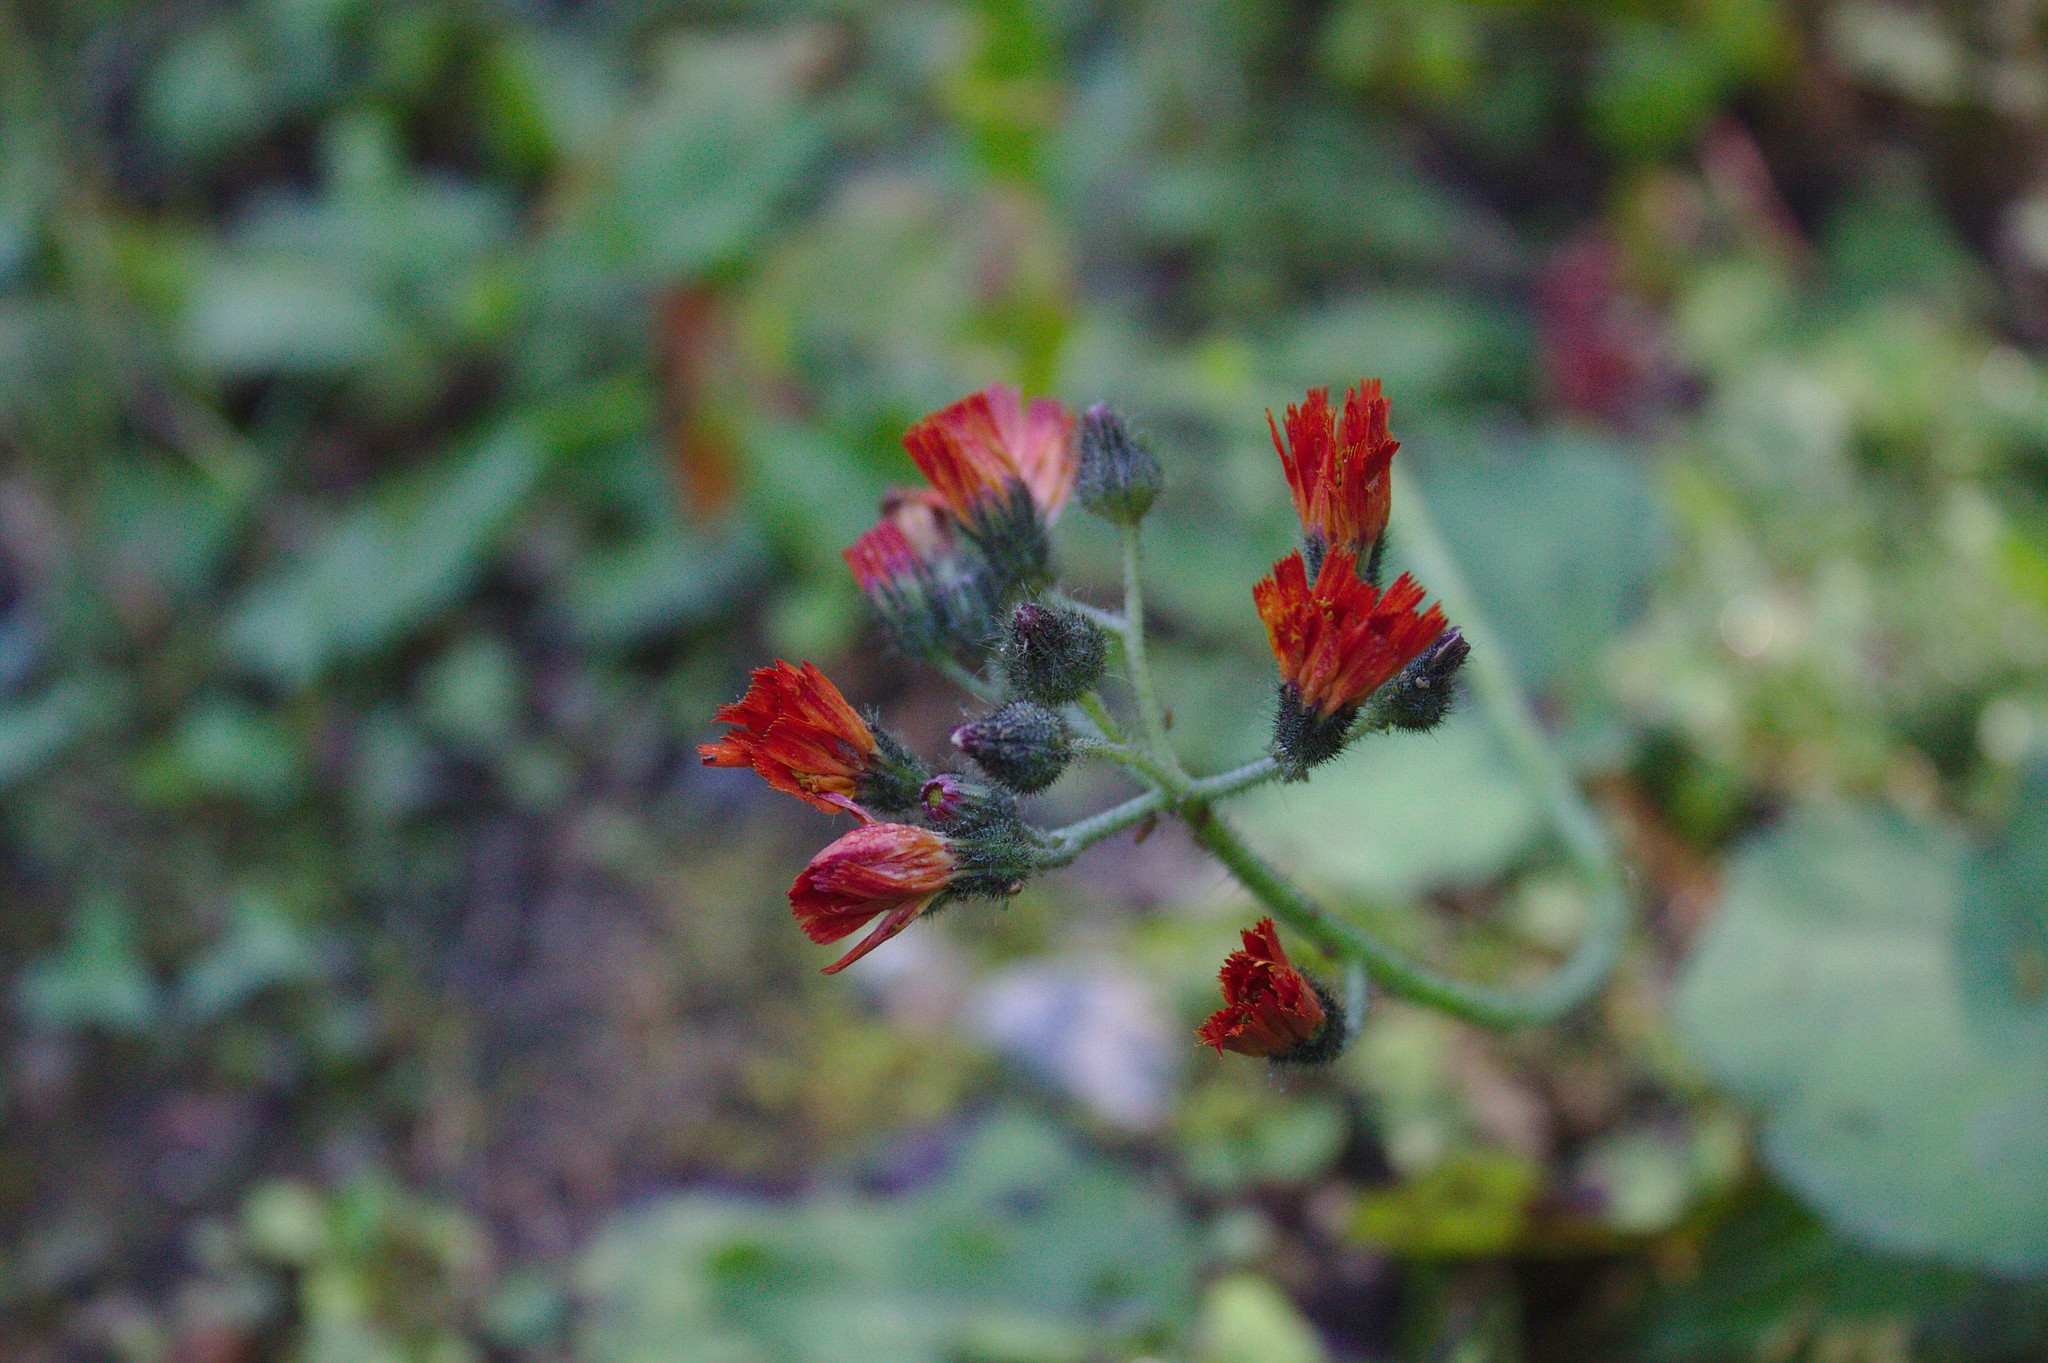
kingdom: Plantae
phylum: Tracheophyta
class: Magnoliopsida
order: Asterales
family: Asteraceae
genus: Pilosella
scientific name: Pilosella aurantiaca
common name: Fox-and-cubs
